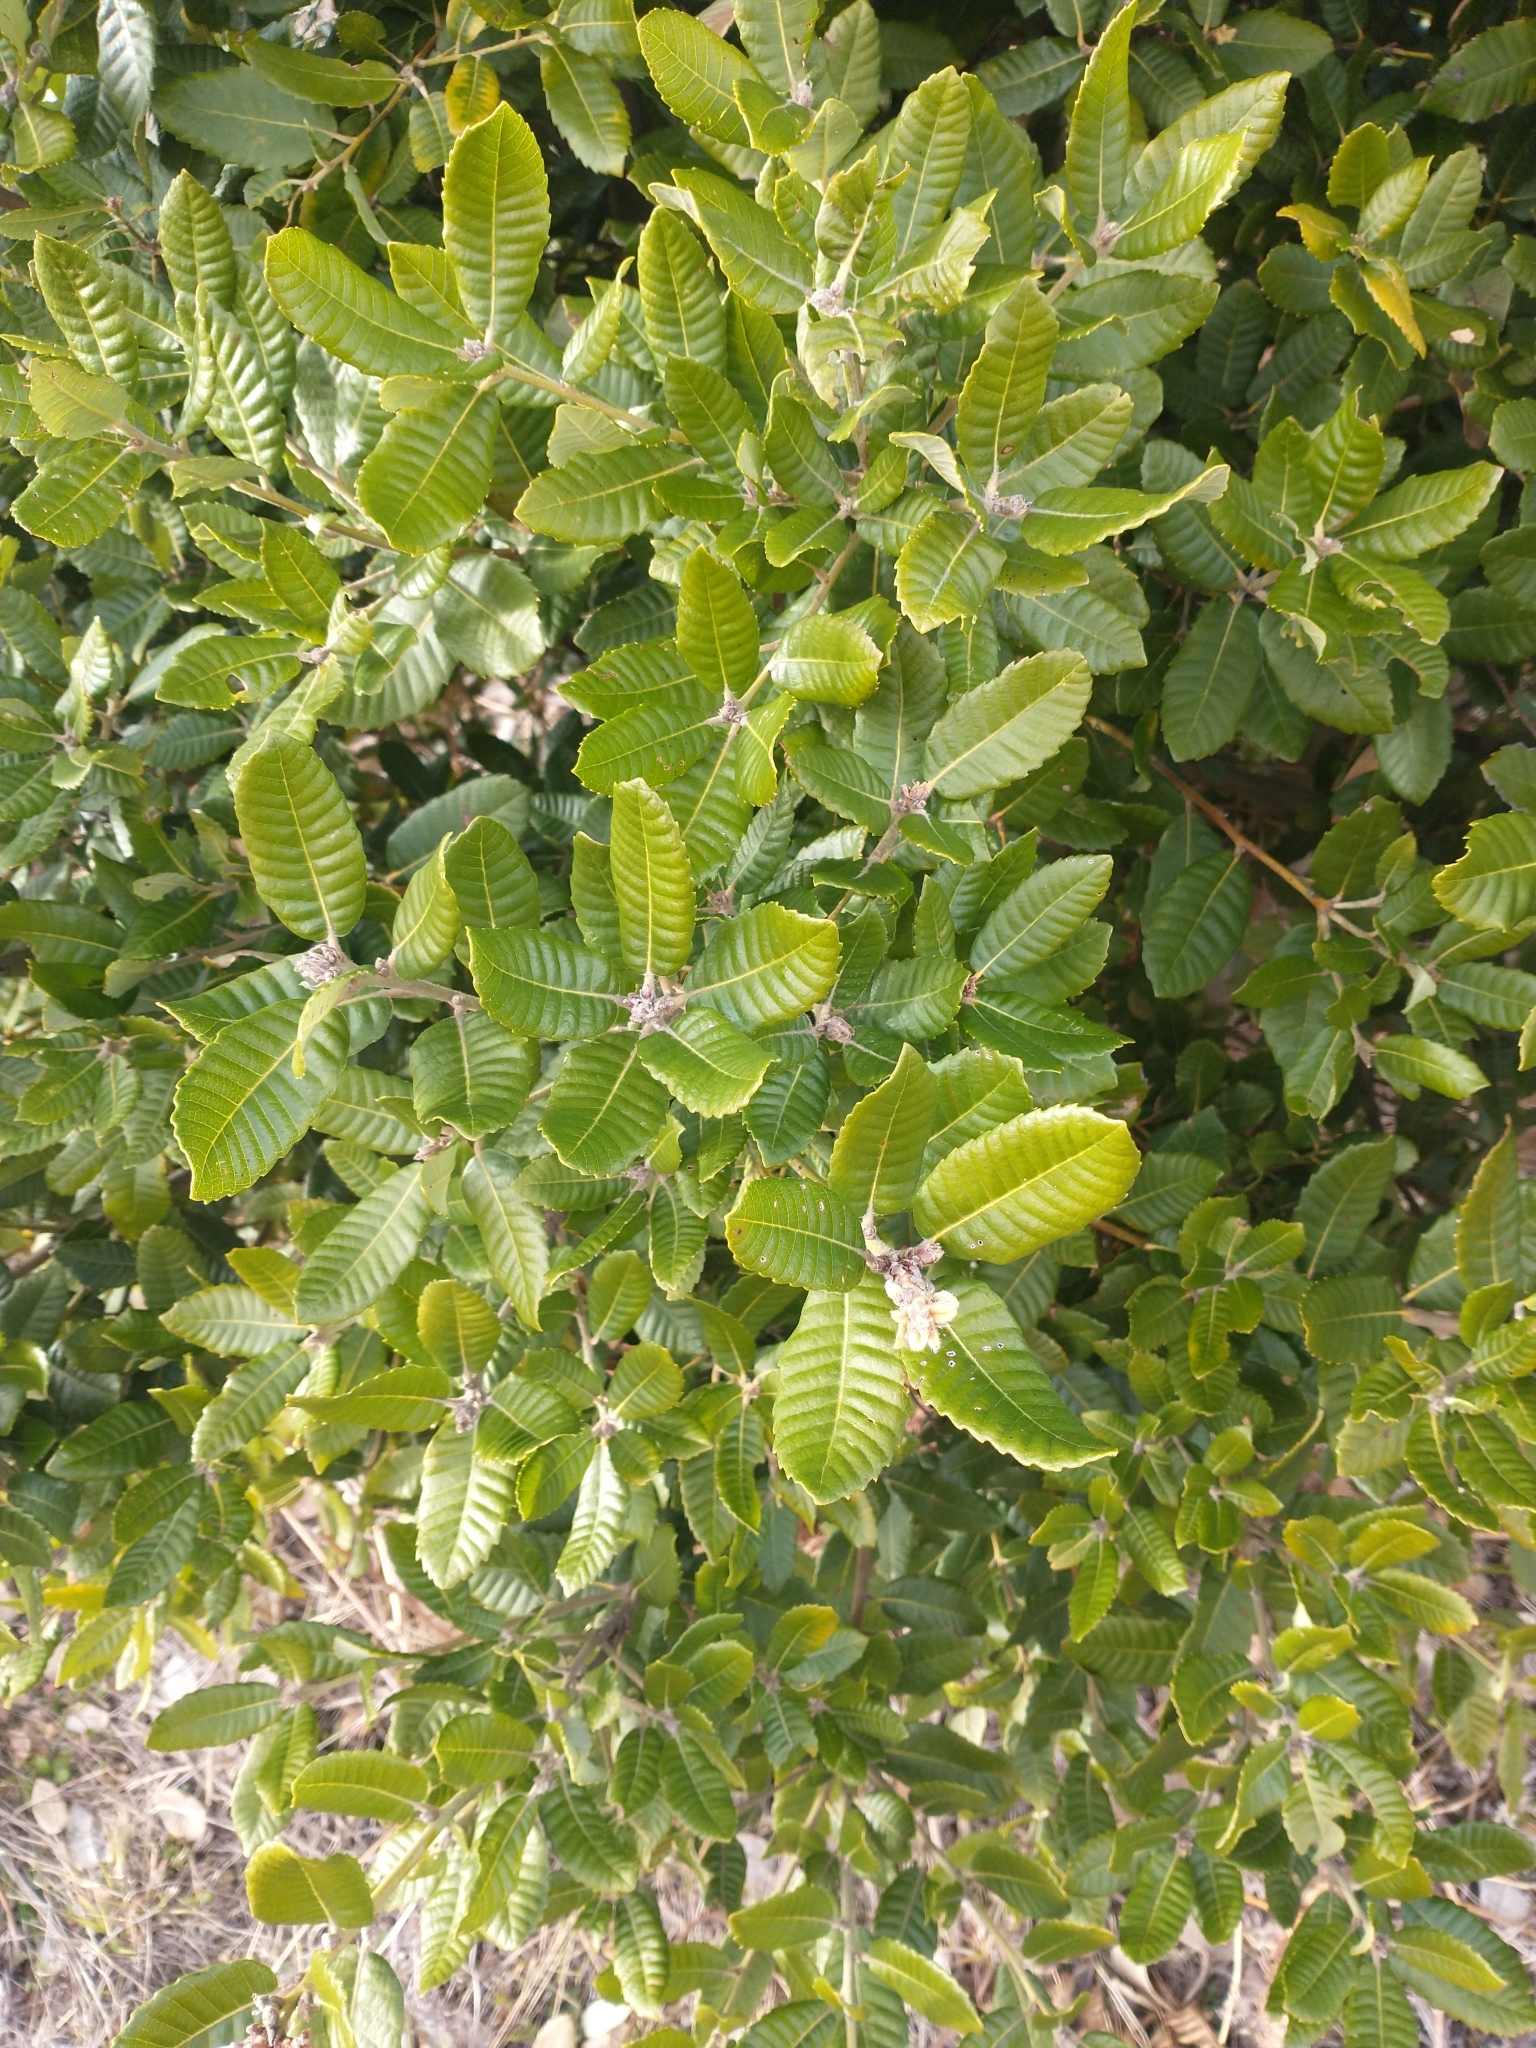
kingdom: Plantae
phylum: Tracheophyta
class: Magnoliopsida
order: Fagales
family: Fagaceae
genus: Notholithocarpus
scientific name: Notholithocarpus densiflorus
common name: Tan bark oak
